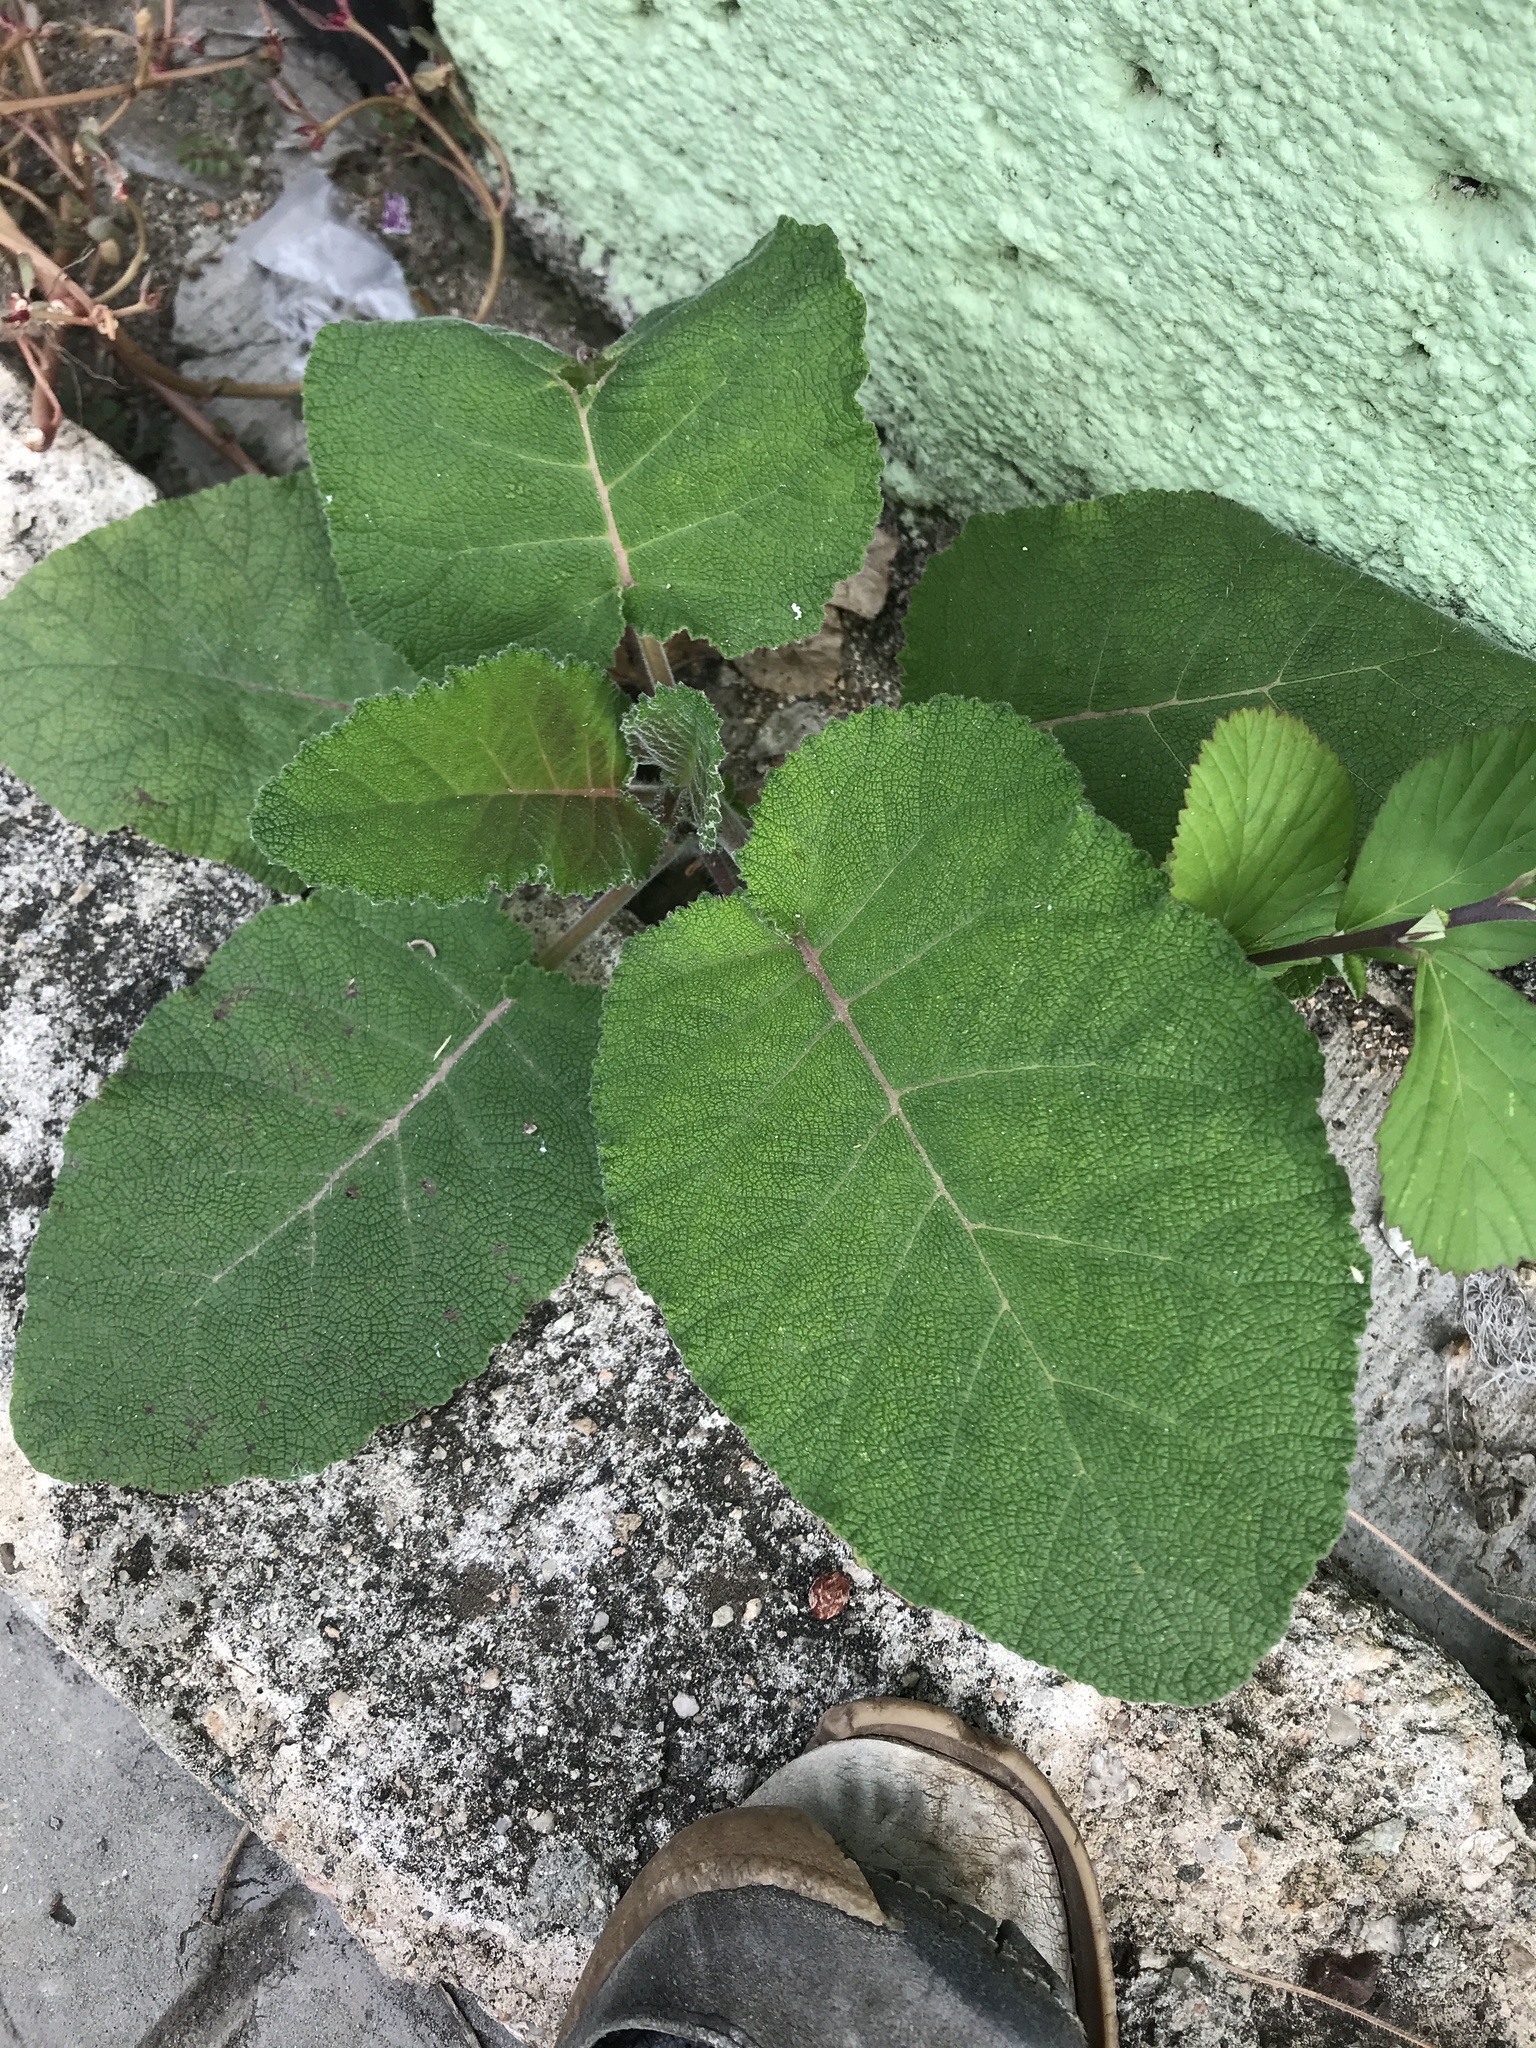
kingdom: Plantae
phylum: Tracheophyta
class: Magnoliopsida
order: Boraginales
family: Namaceae
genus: Wigandia
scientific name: Wigandia urens
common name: Caracus wigandia
